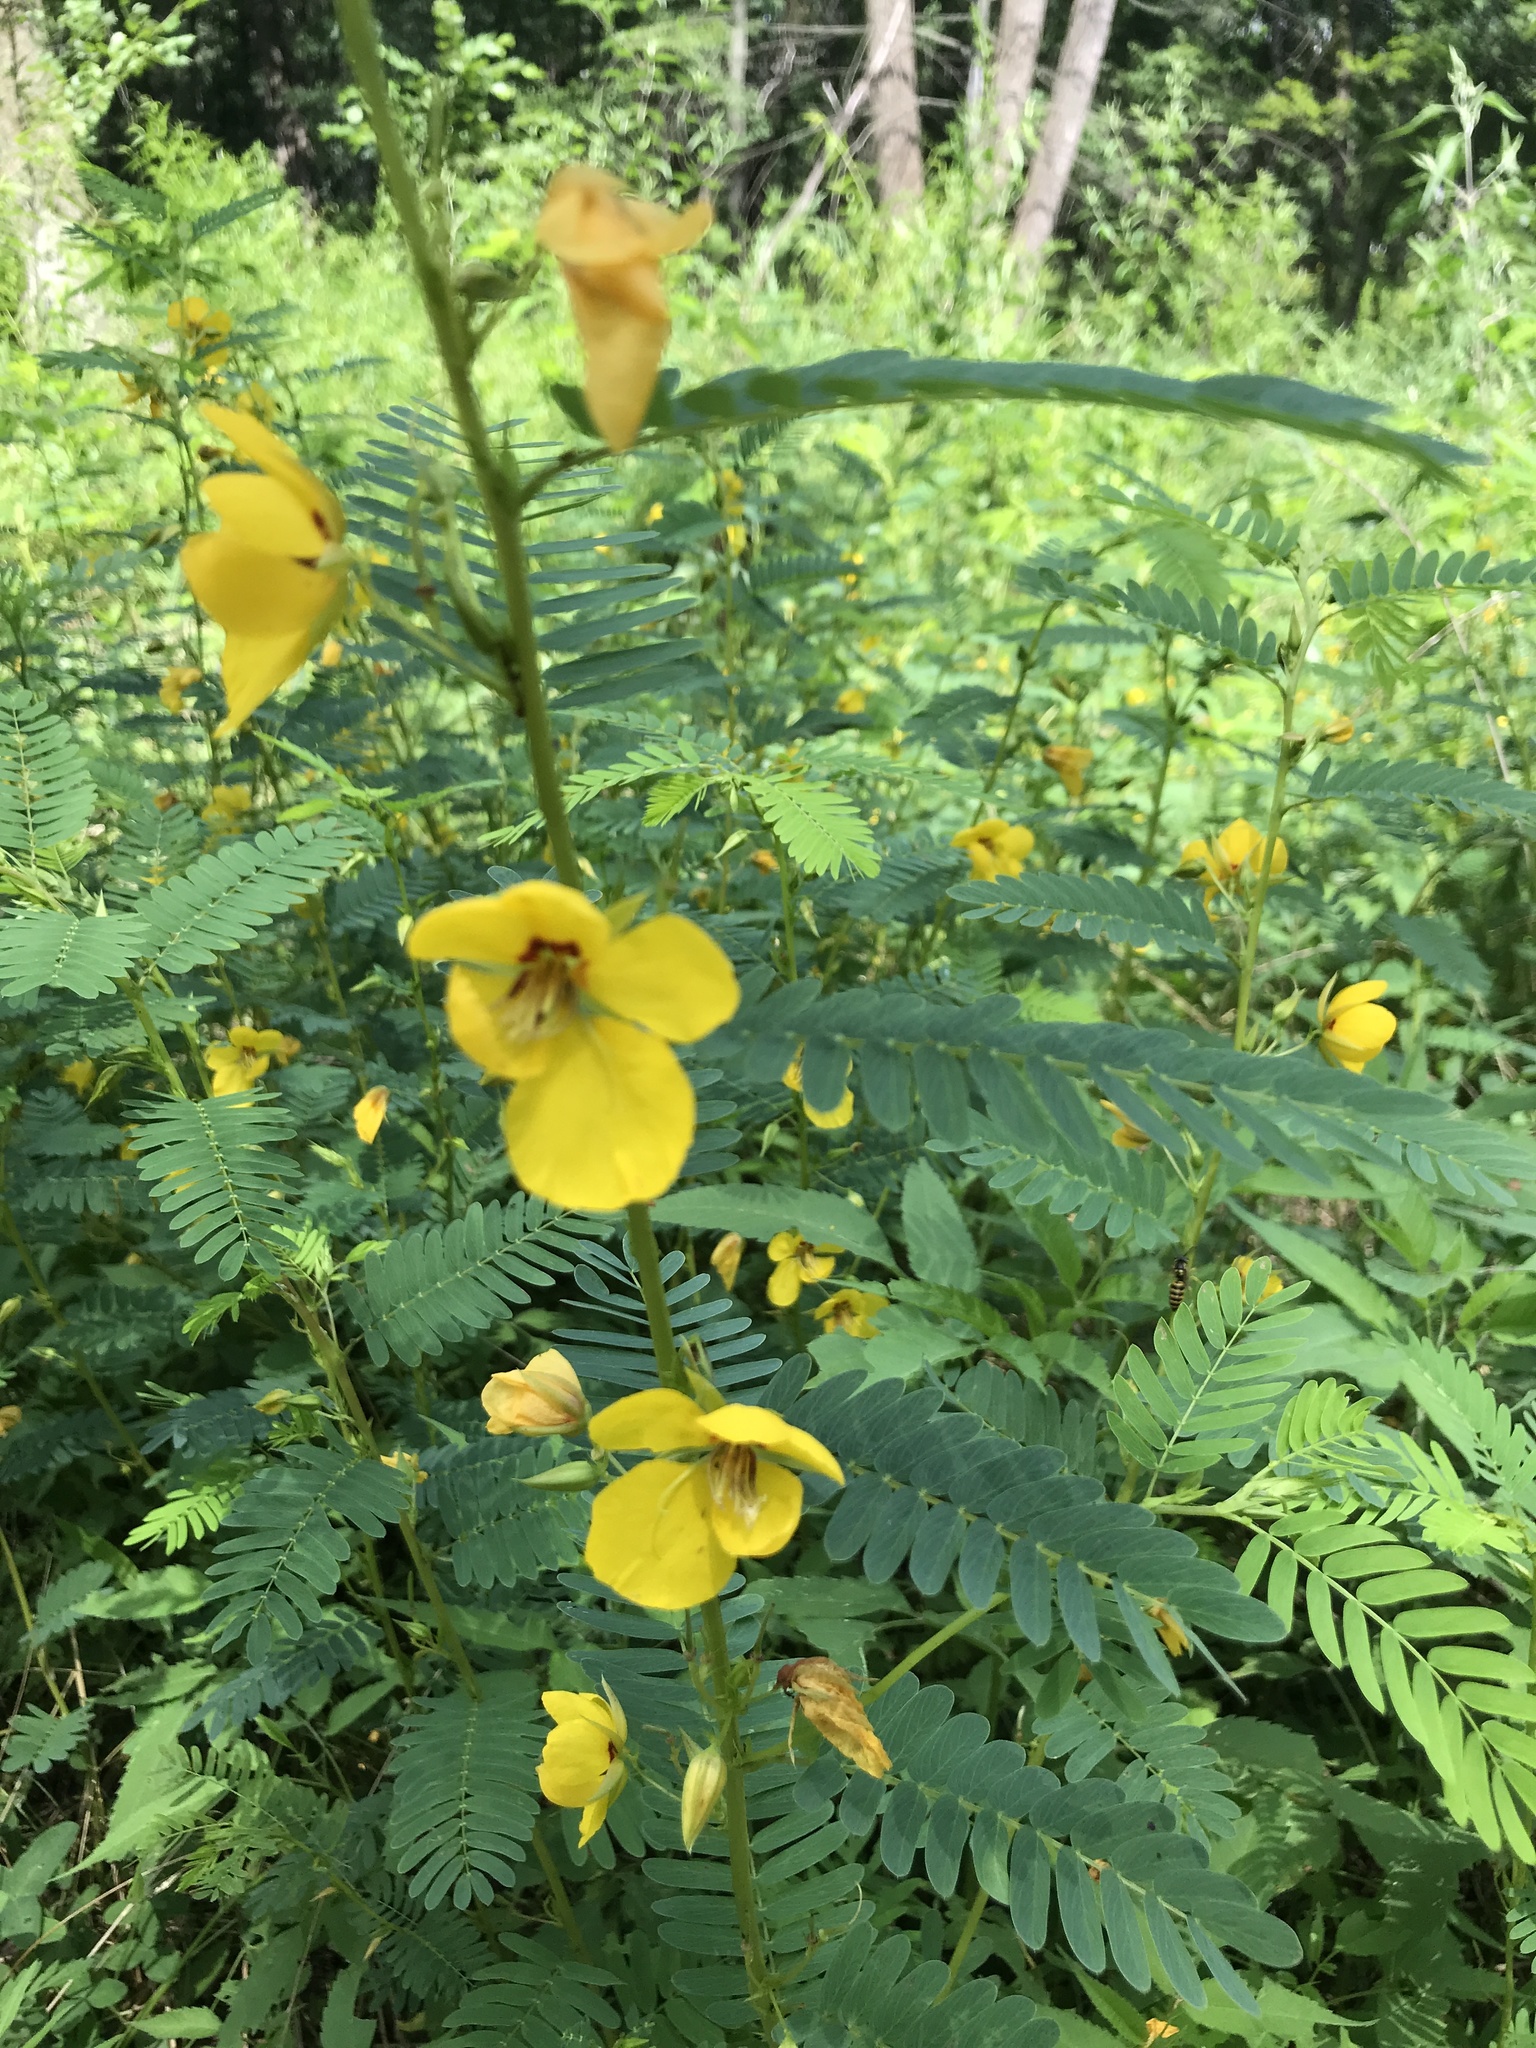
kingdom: Plantae
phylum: Tracheophyta
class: Magnoliopsida
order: Fabales
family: Fabaceae
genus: Chamaecrista
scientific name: Chamaecrista fasciculata
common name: Golden cassia
